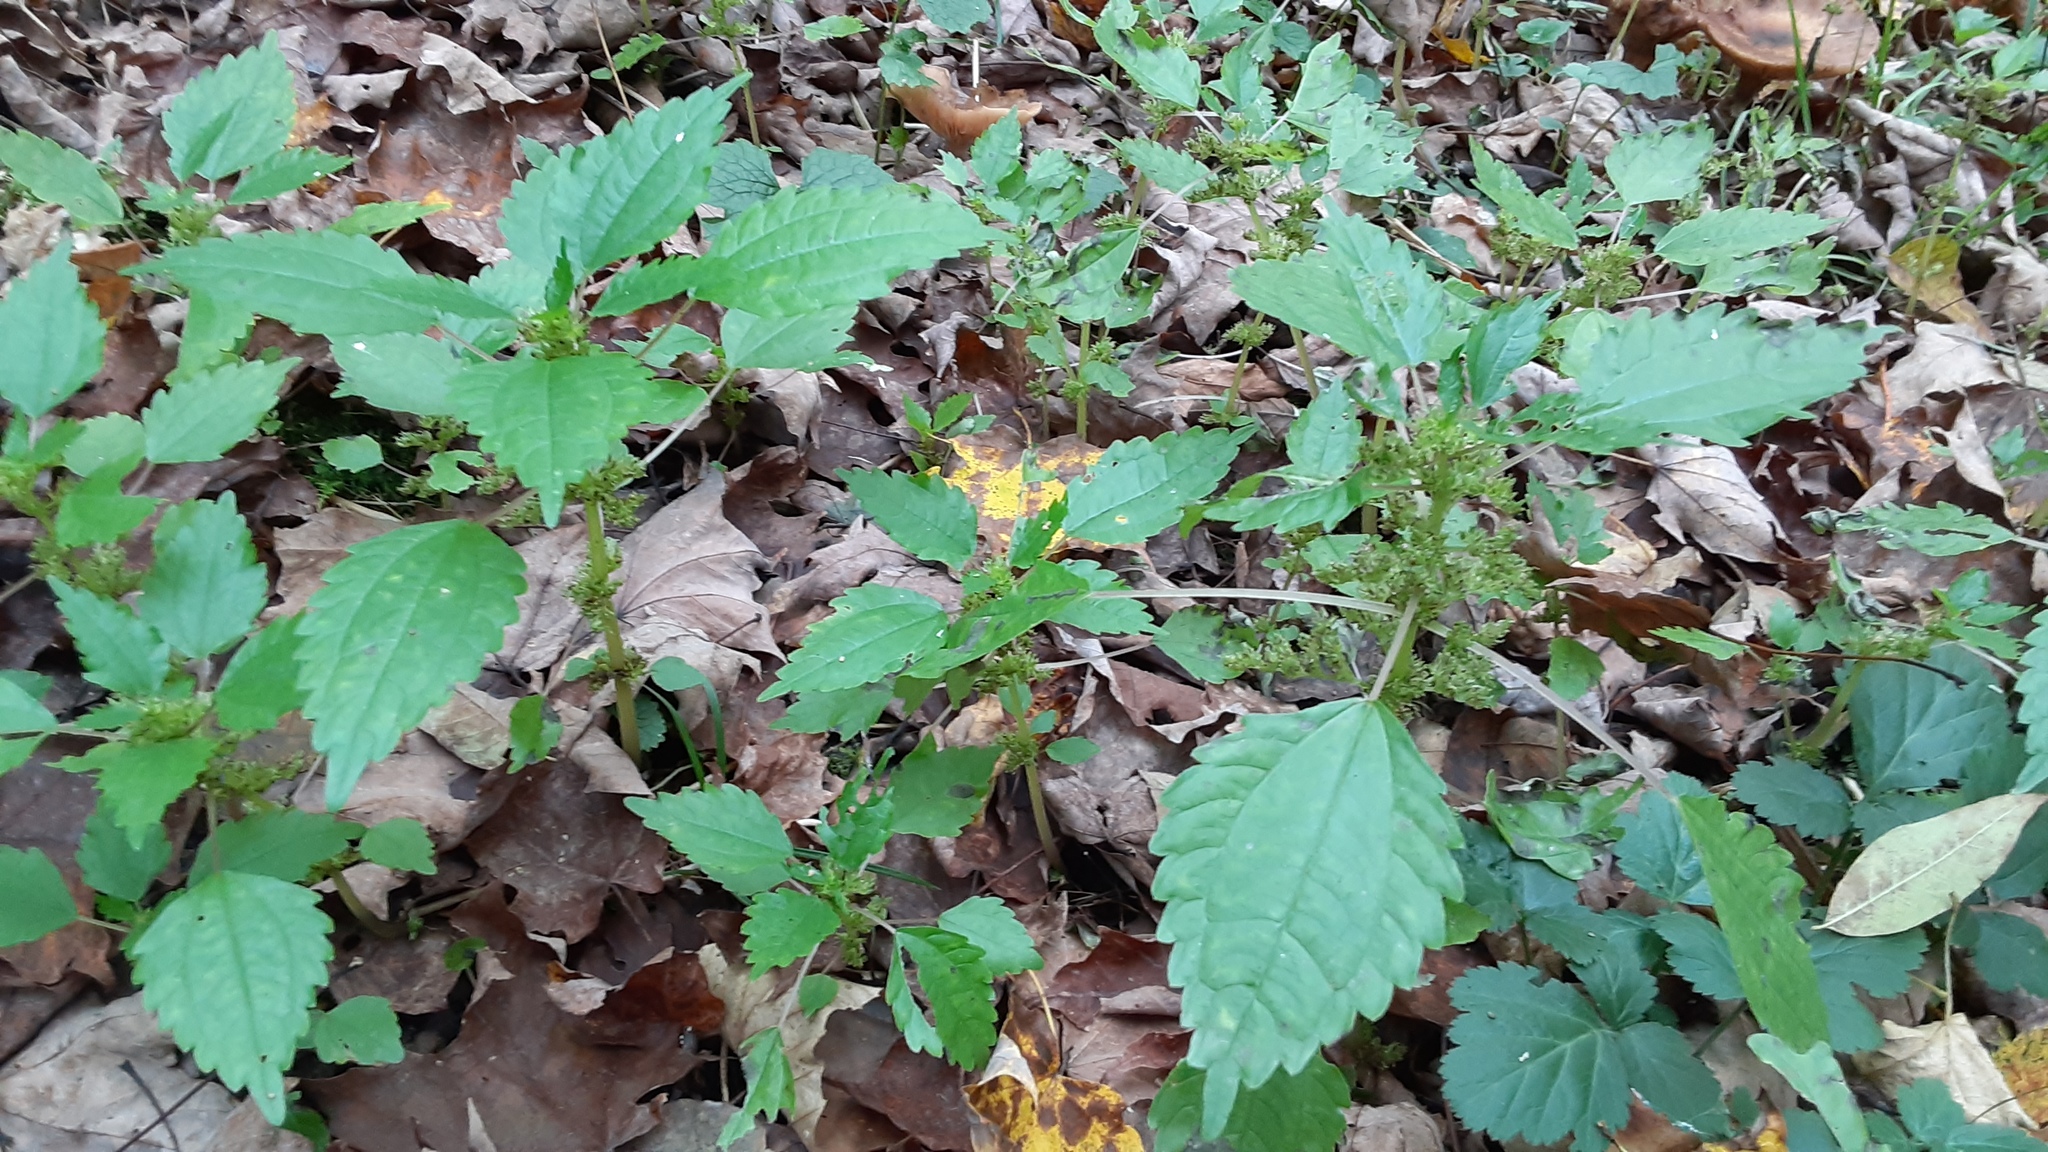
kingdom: Plantae
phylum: Tracheophyta
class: Magnoliopsida
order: Rosales
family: Urticaceae
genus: Pilea
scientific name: Pilea pumila
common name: Clearweed
